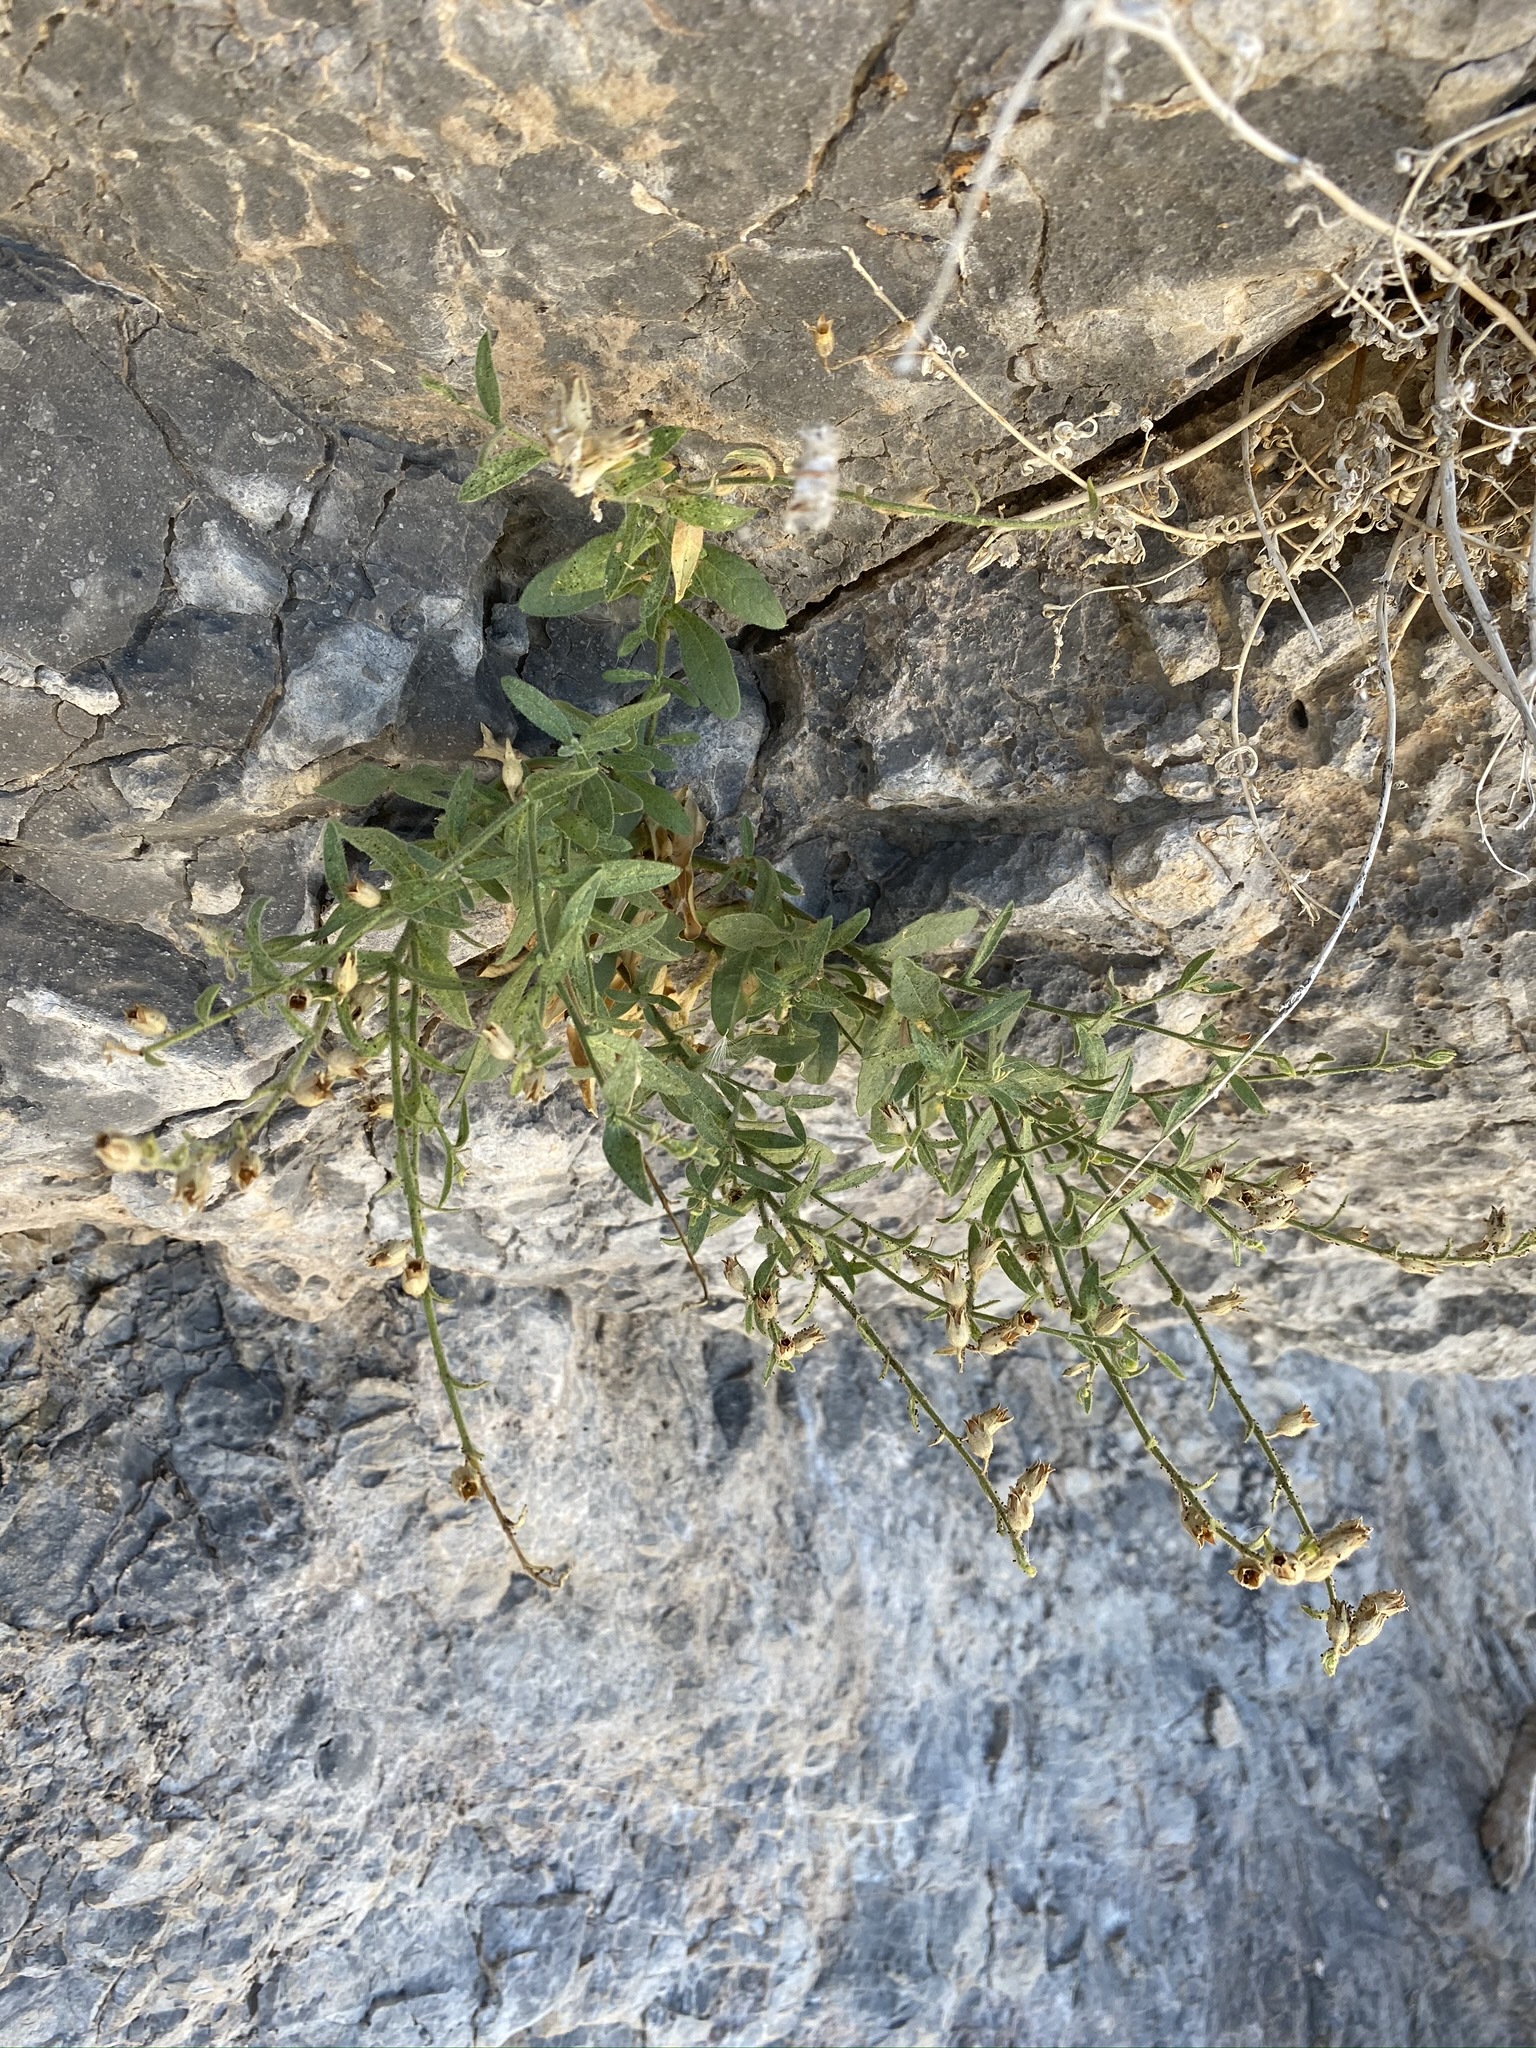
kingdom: Plantae
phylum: Tracheophyta
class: Magnoliopsida
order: Solanales
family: Solanaceae
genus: Nicotiana
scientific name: Nicotiana obtusifolia
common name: Desert tobacco
